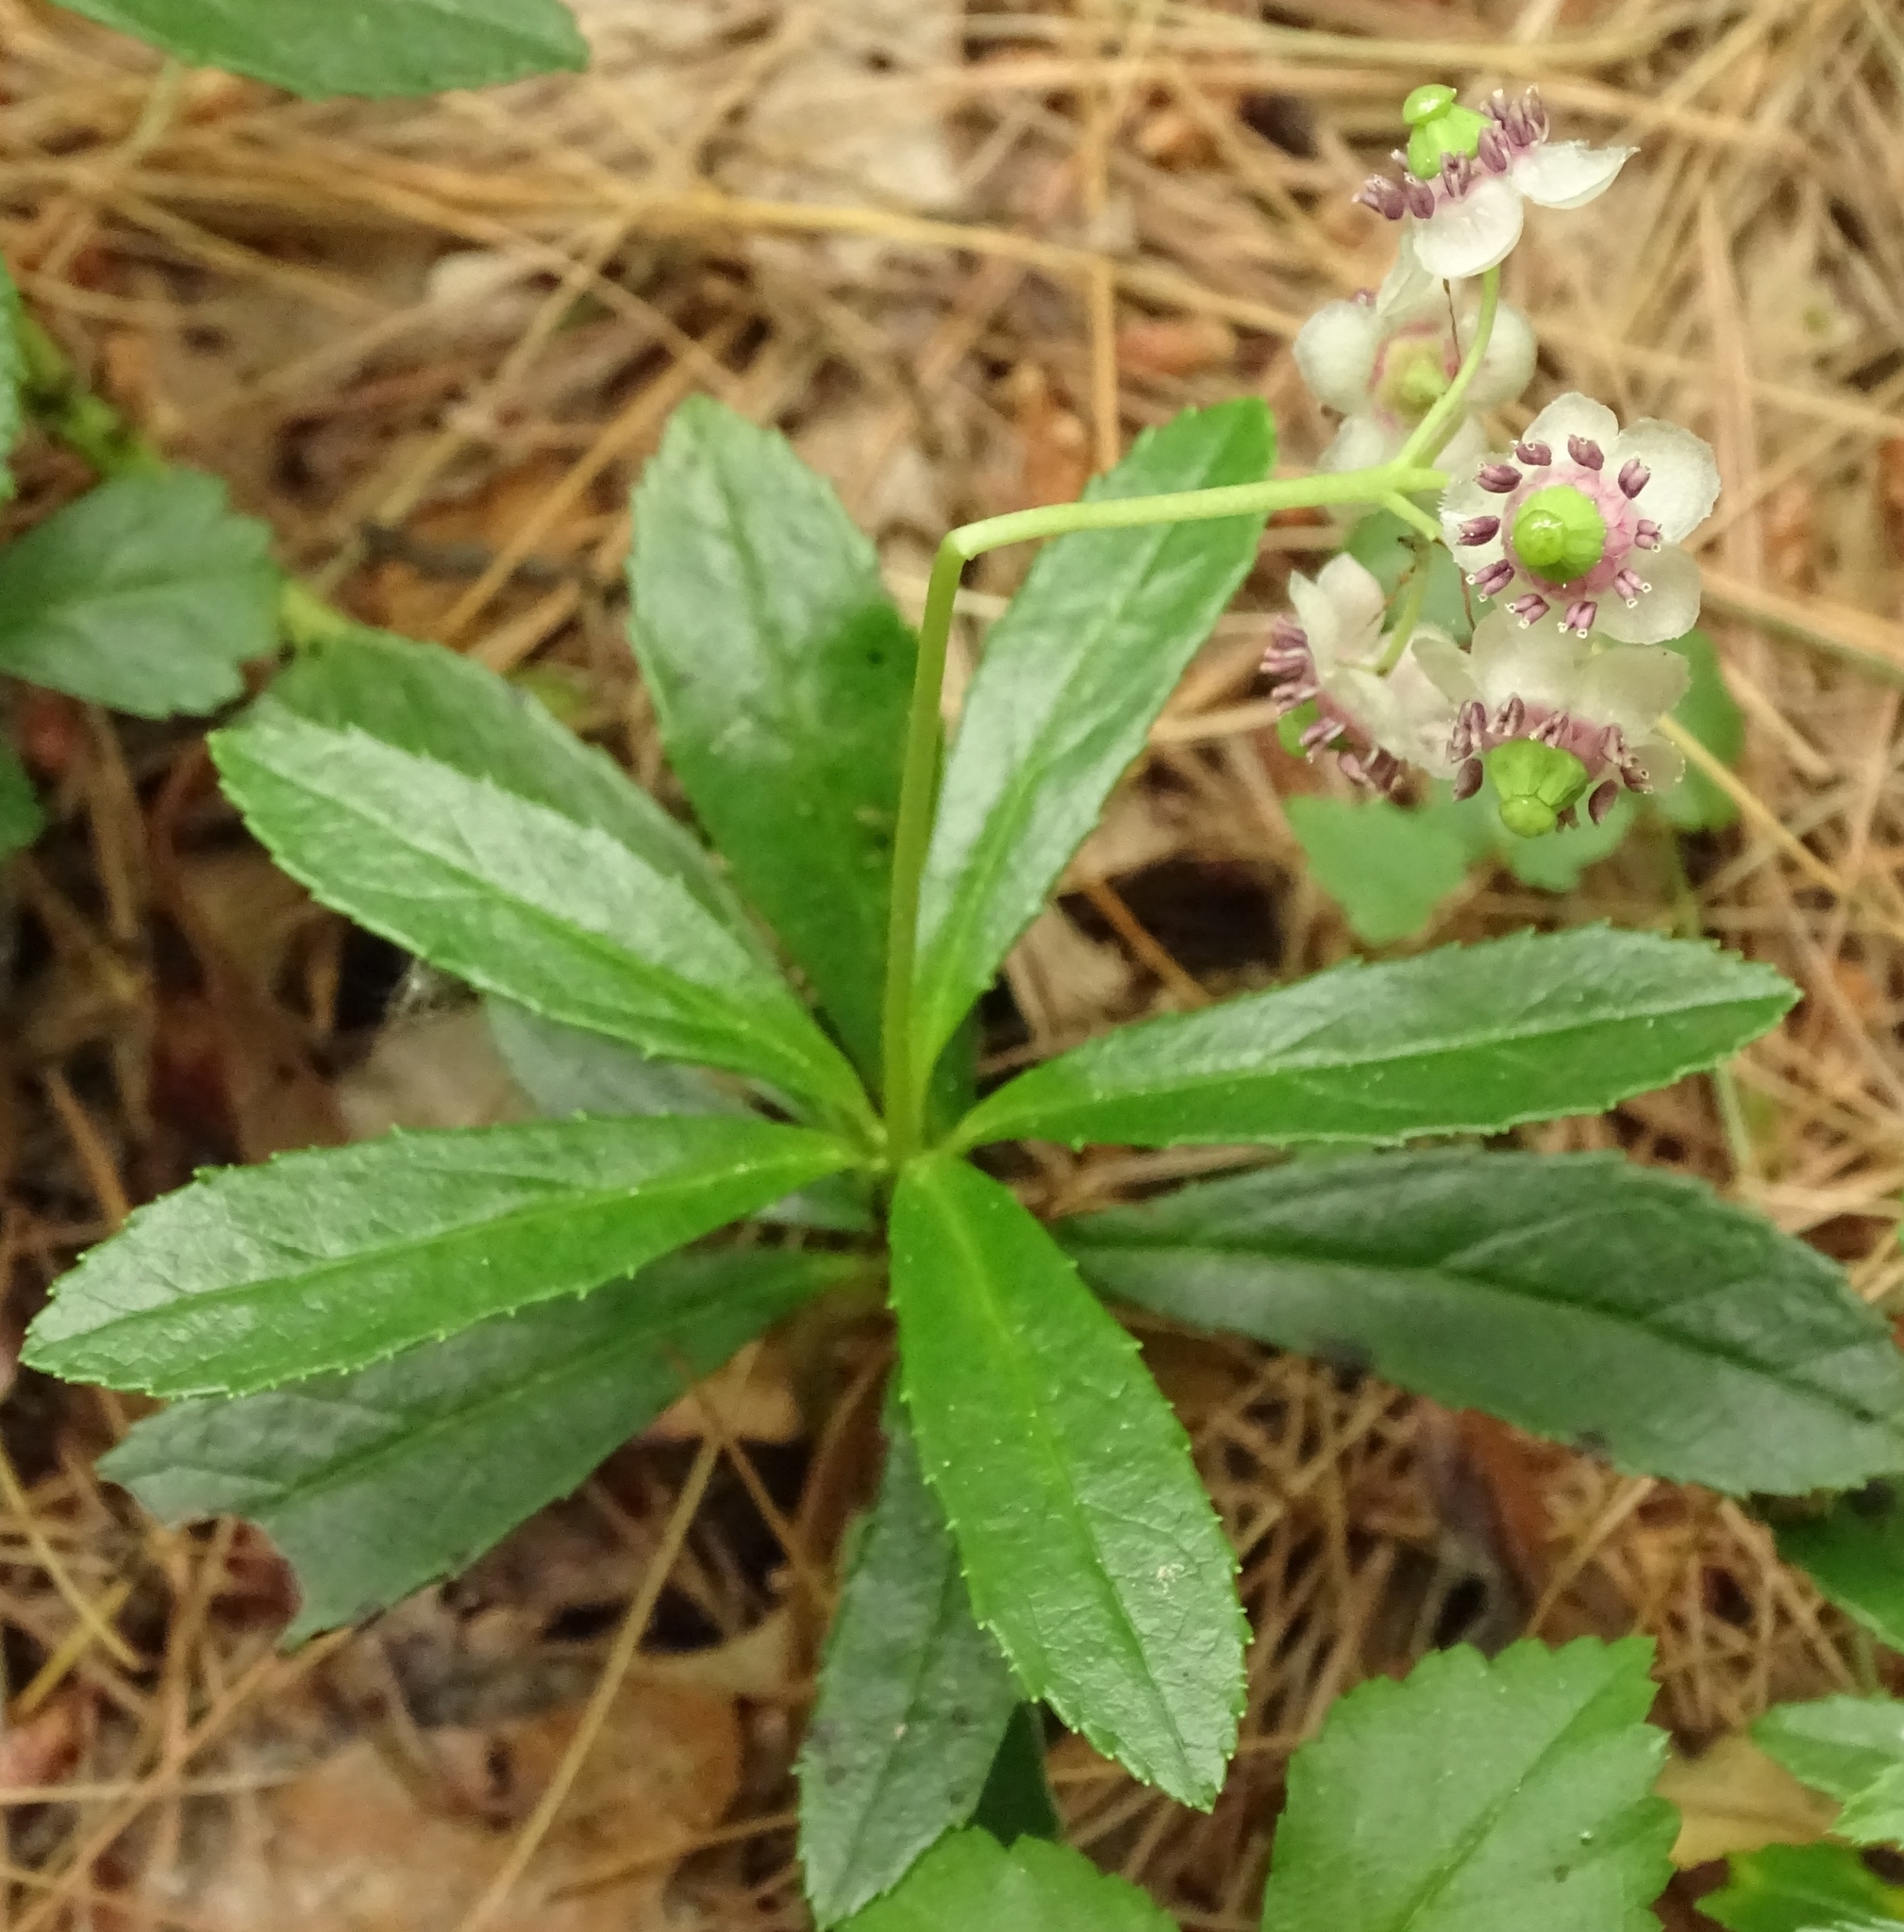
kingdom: Plantae
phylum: Tracheophyta
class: Magnoliopsida
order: Ericales
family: Ericaceae
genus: Chimaphila
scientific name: Chimaphila umbellata
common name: Pipsissewa
